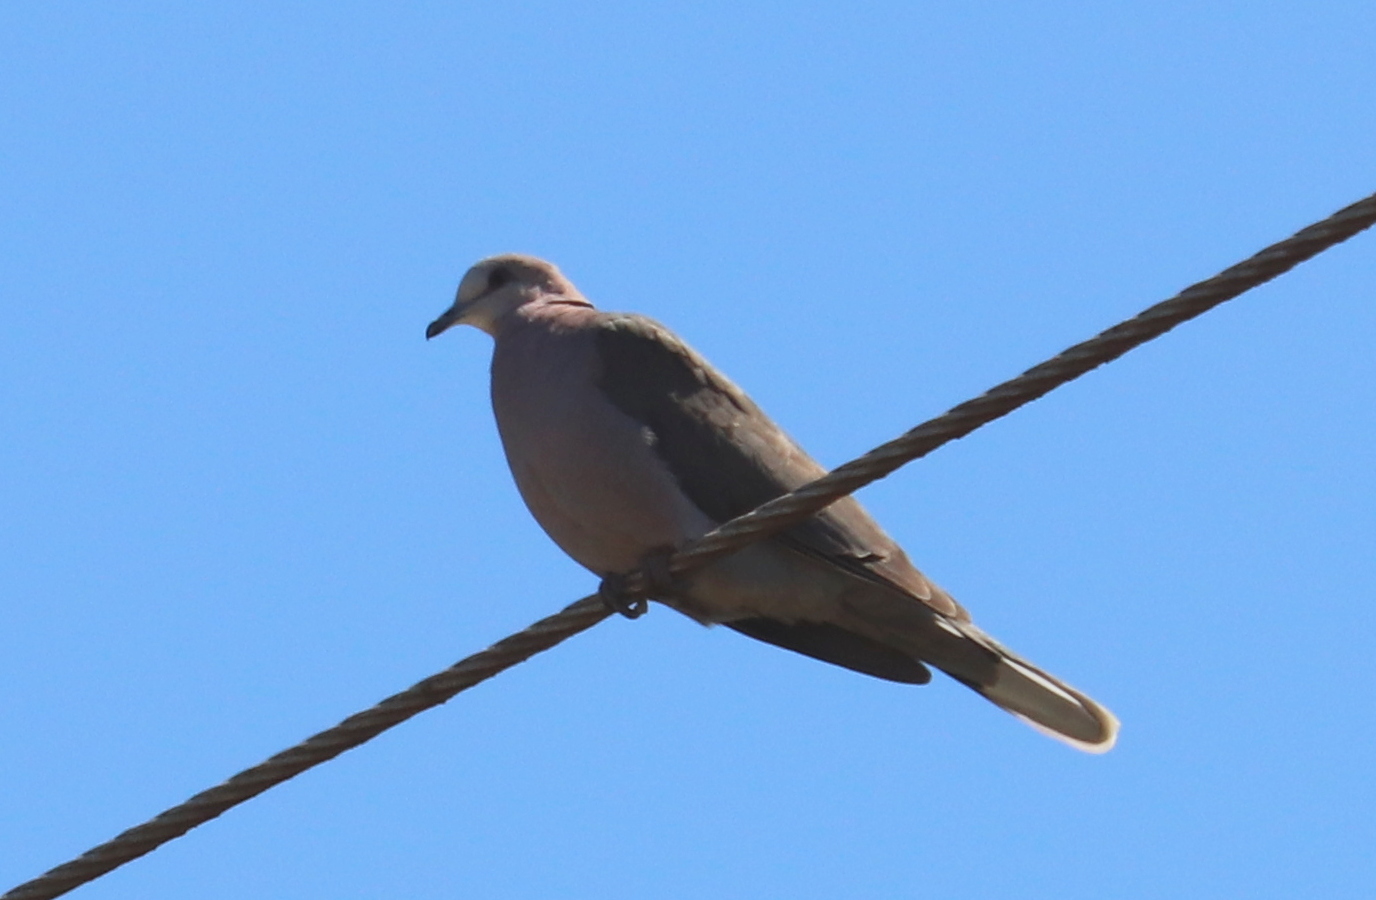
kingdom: Animalia
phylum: Chordata
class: Aves
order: Columbiformes
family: Columbidae
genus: Streptopelia
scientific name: Streptopelia semitorquata
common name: Red-eyed dove
